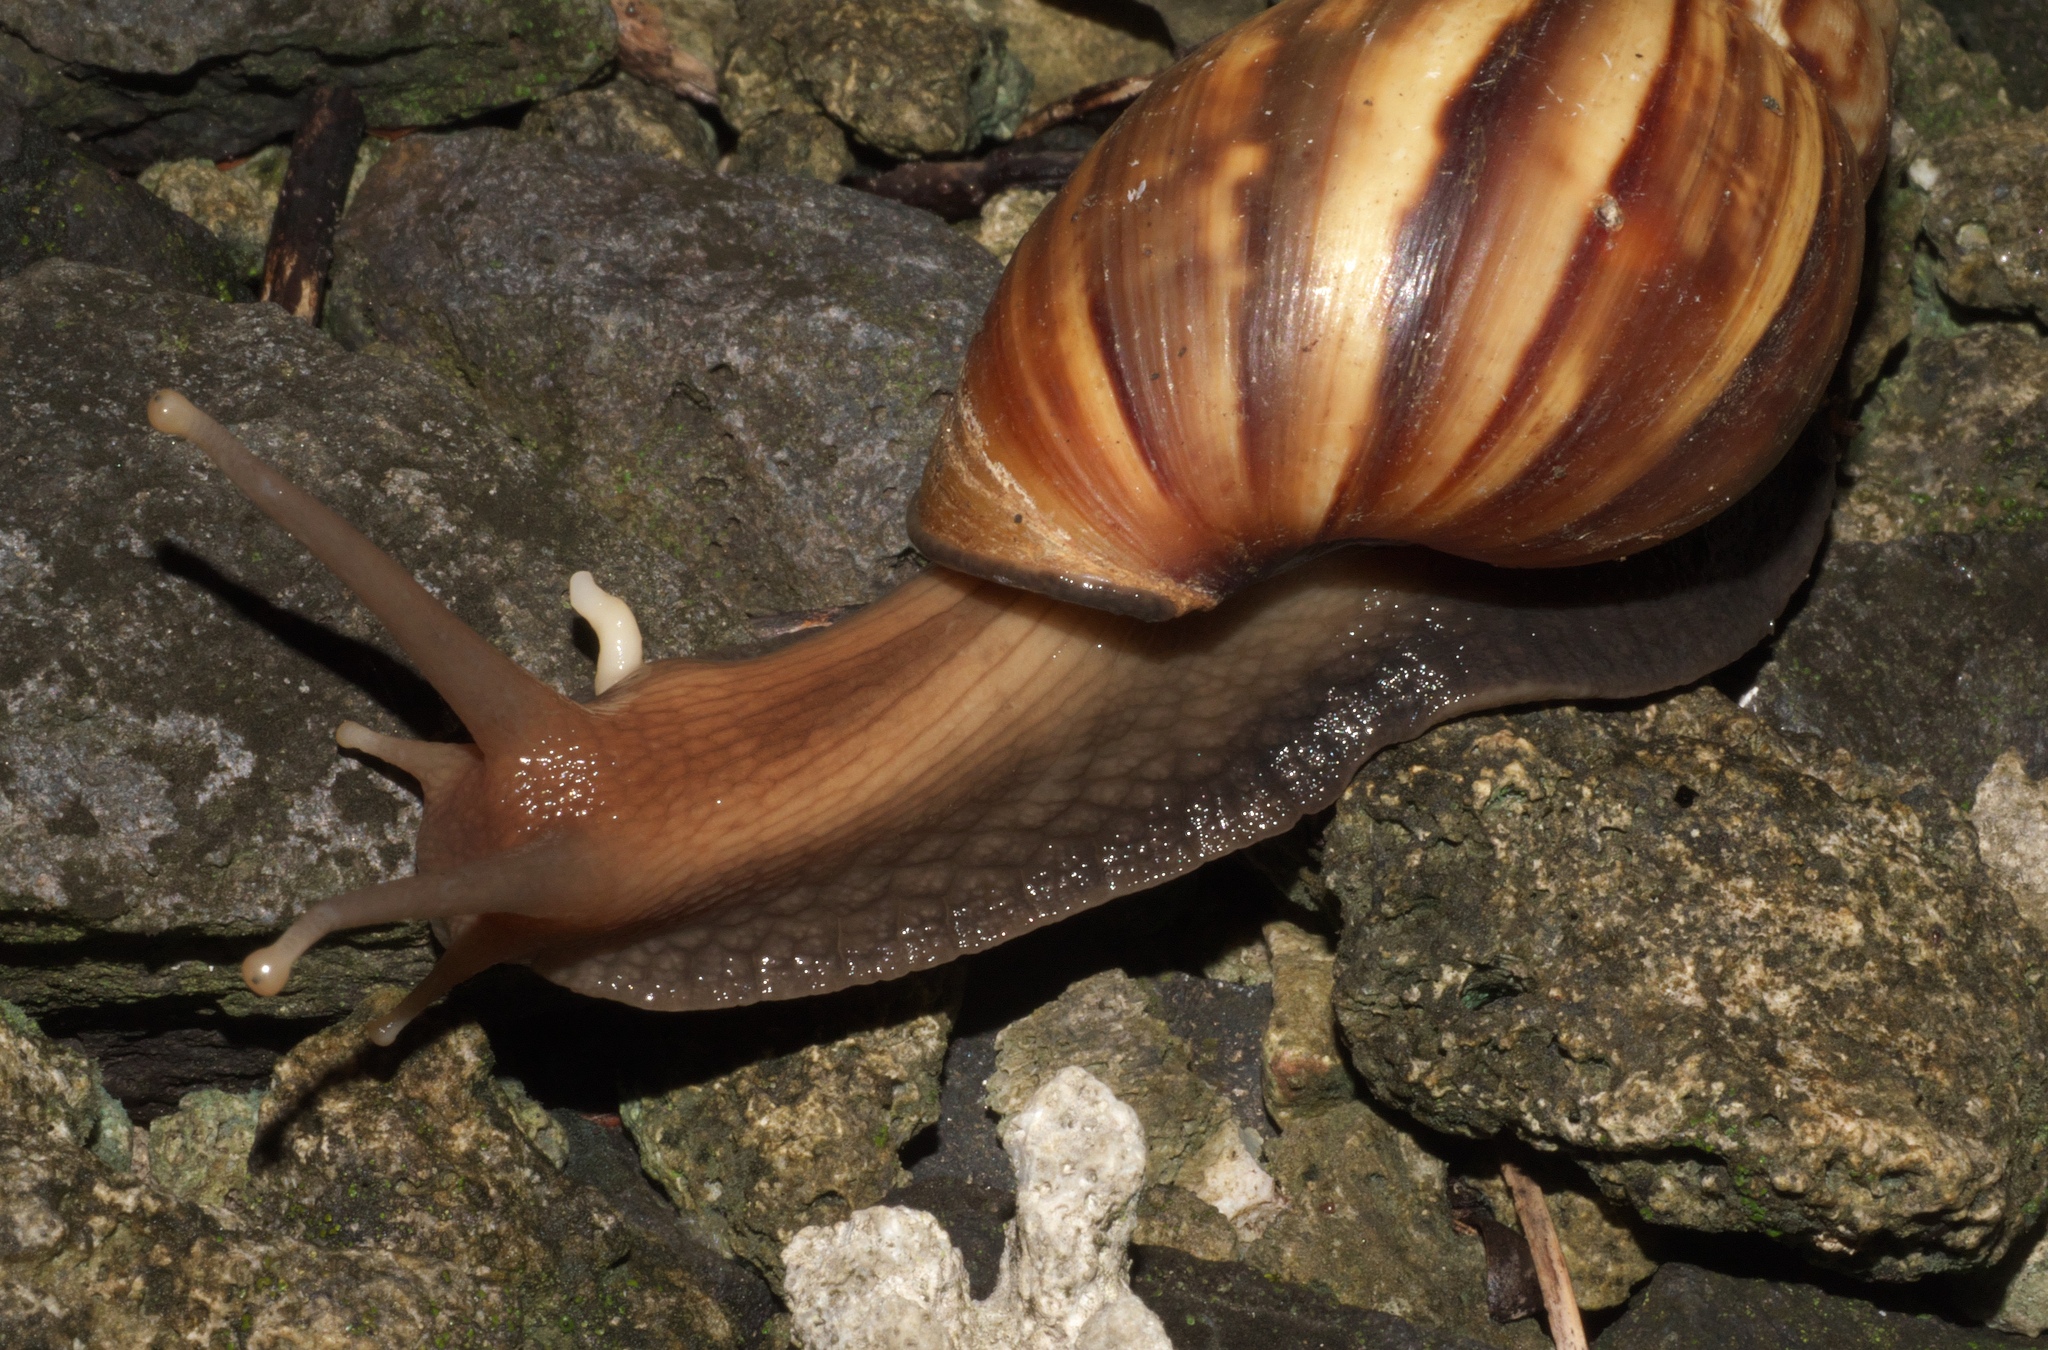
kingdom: Animalia
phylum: Mollusca
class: Gastropoda
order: Stylommatophora
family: Achatinidae
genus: Lissachatina
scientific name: Lissachatina fulica
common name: Giant african snail
